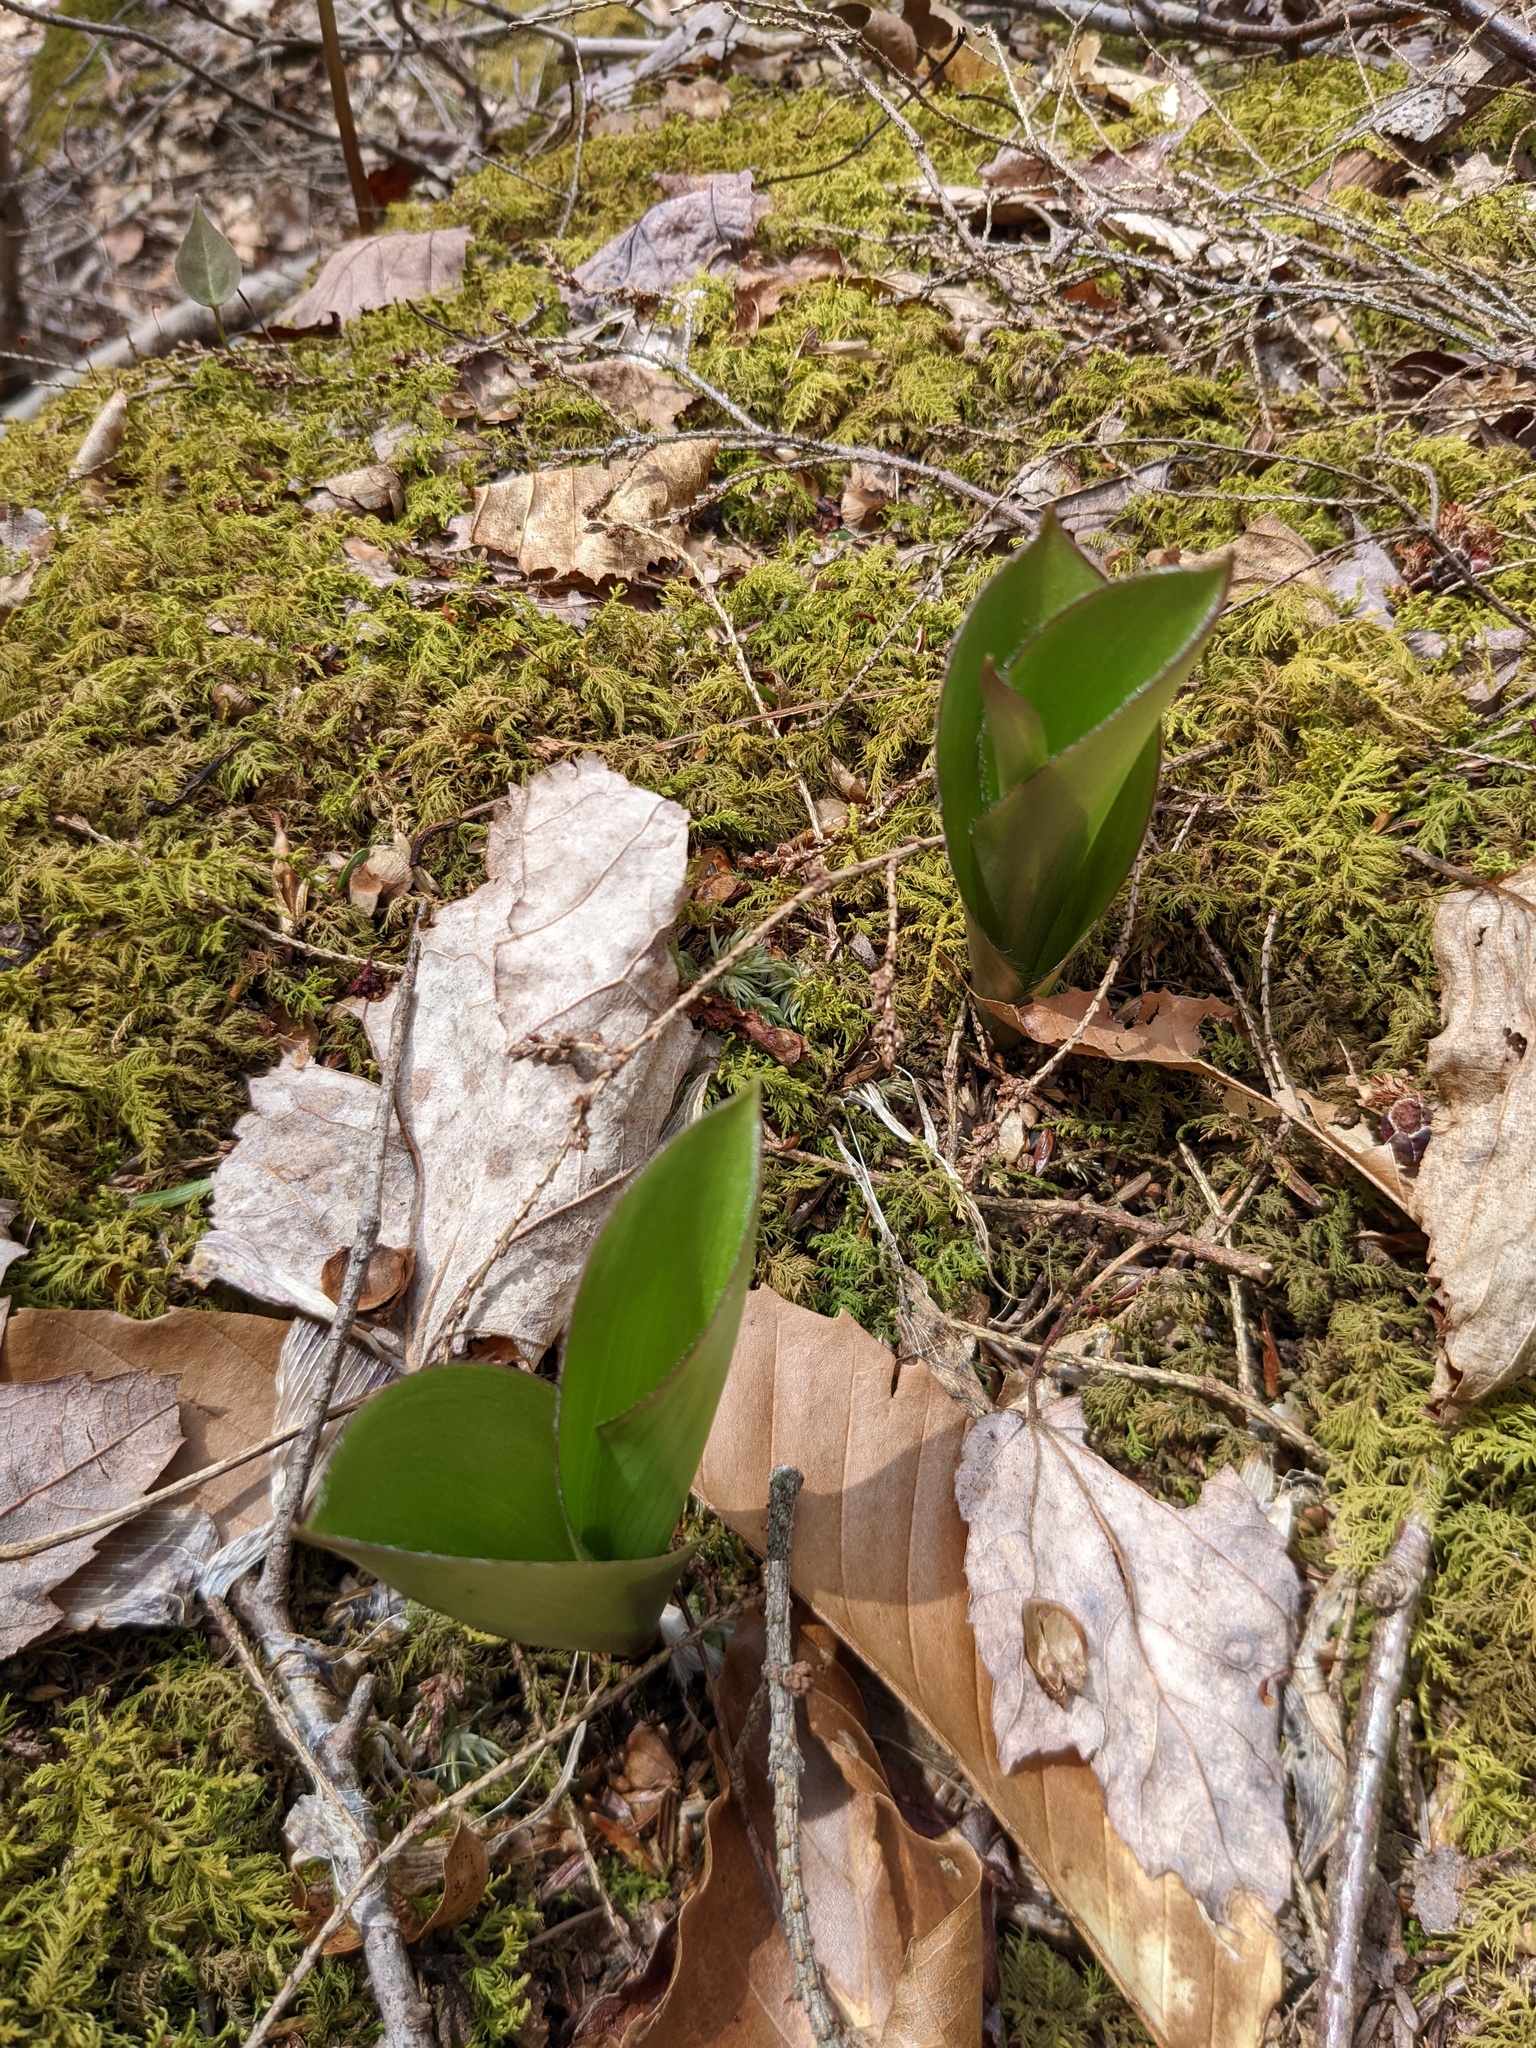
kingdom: Plantae
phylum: Tracheophyta
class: Liliopsida
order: Liliales
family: Liliaceae
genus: Clintonia
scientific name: Clintonia borealis
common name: Yellow clintonia
